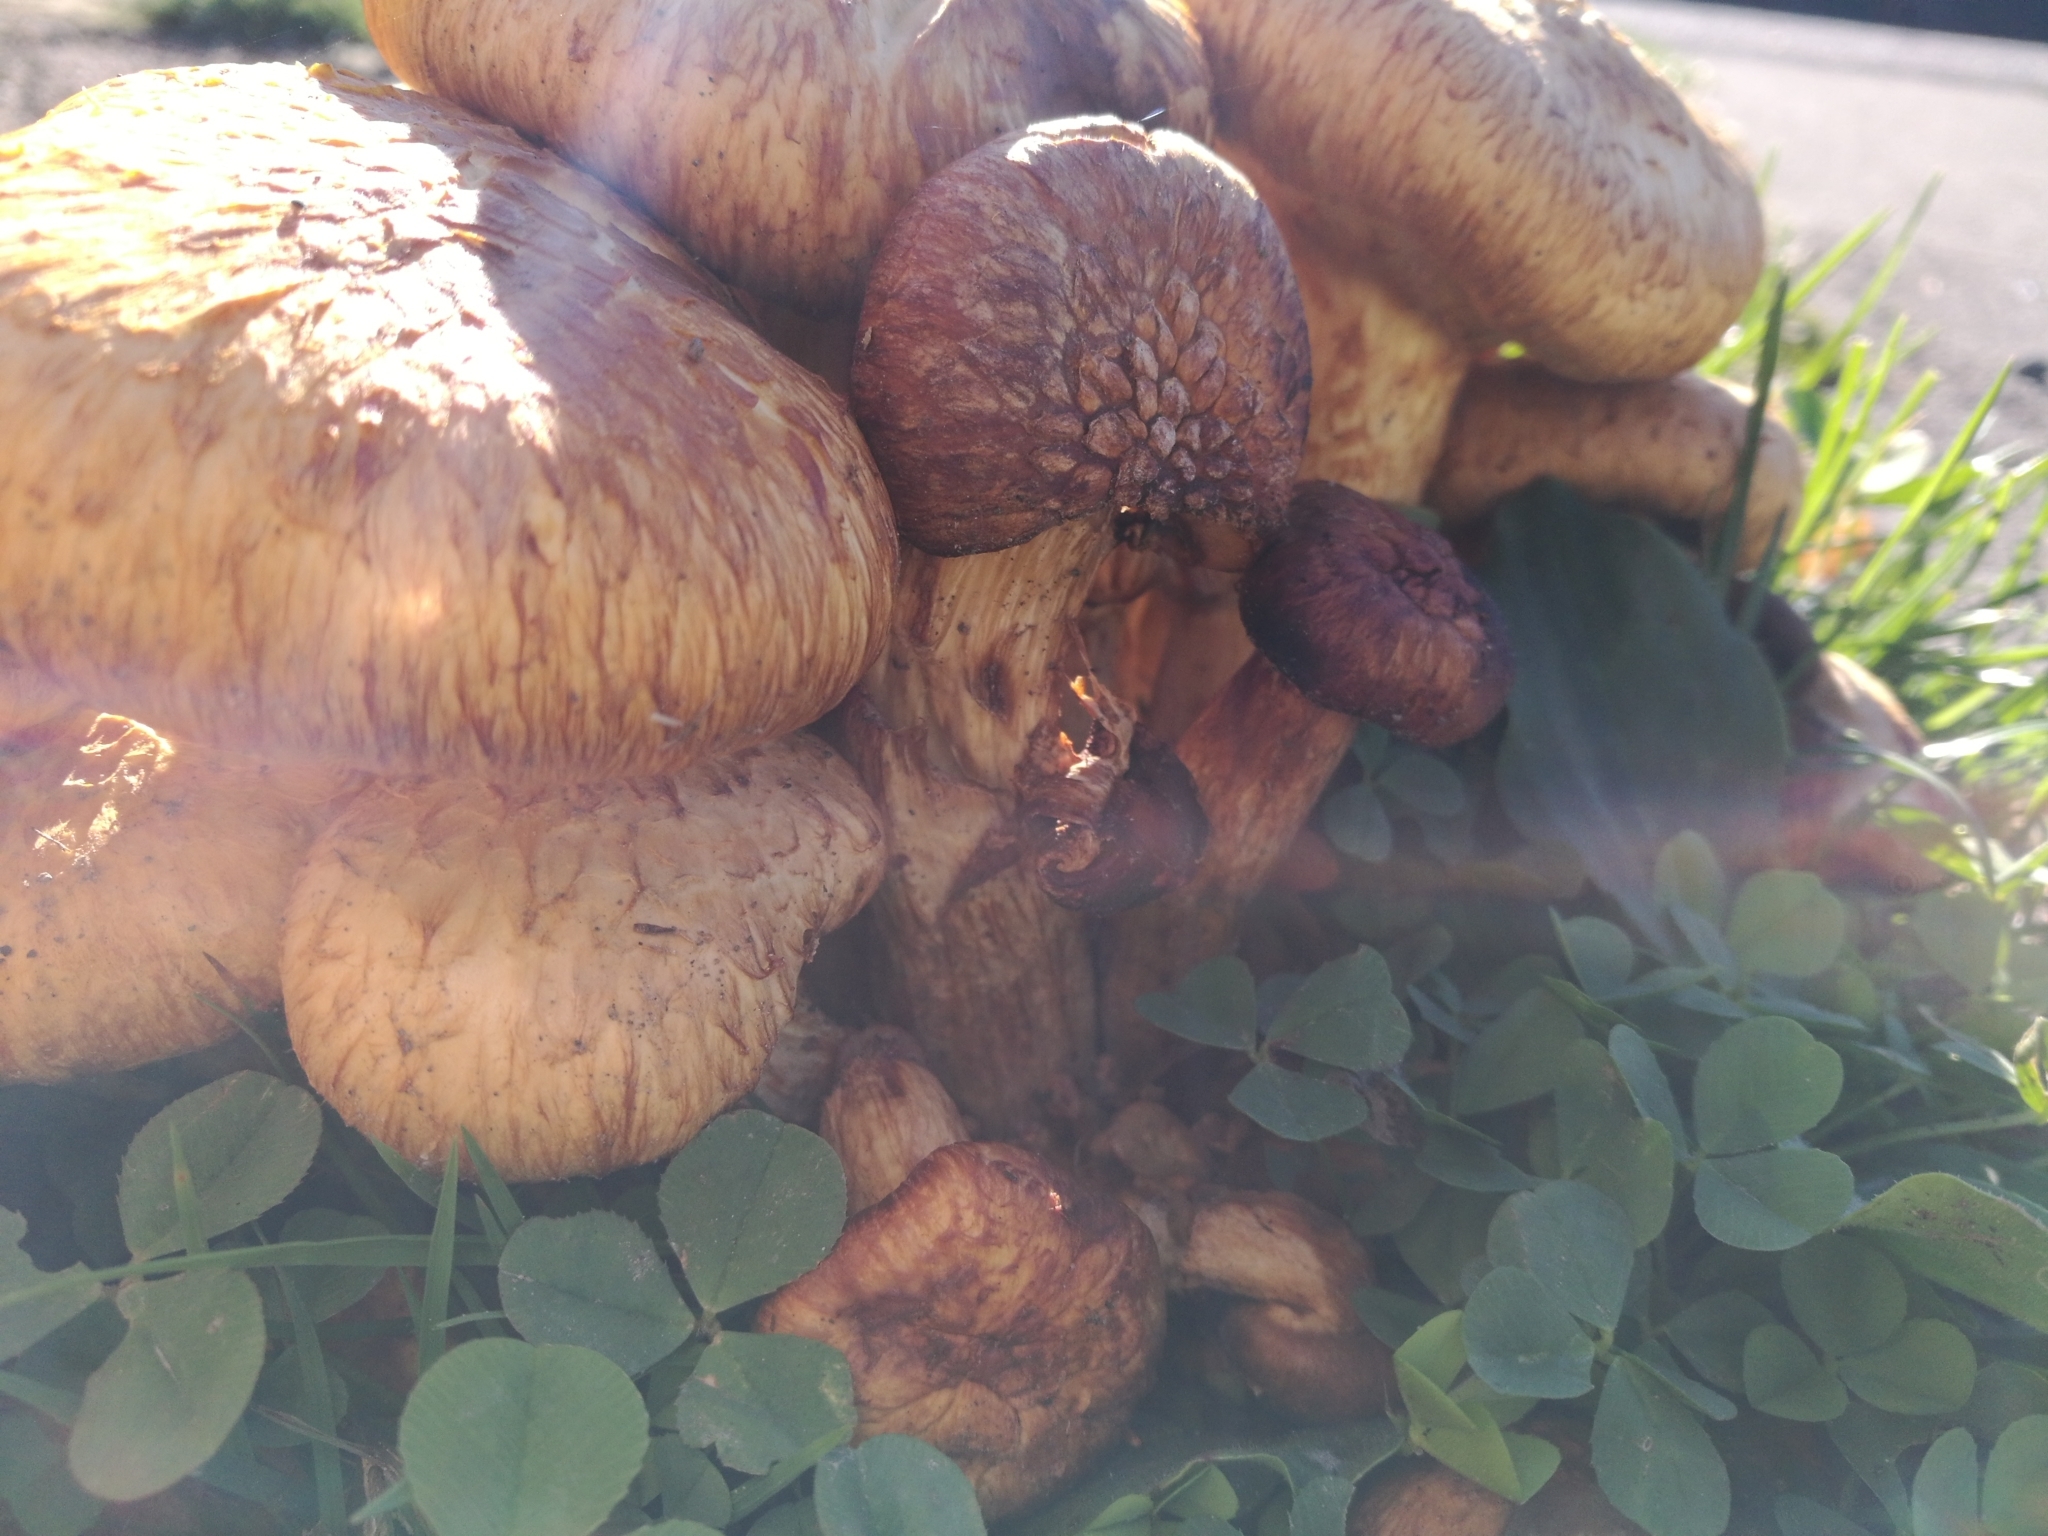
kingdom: Fungi
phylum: Basidiomycota
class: Agaricomycetes
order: Agaricales
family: Hymenogastraceae
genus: Gymnopilus
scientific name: Gymnopilus junonius
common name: Spectacular rustgill
